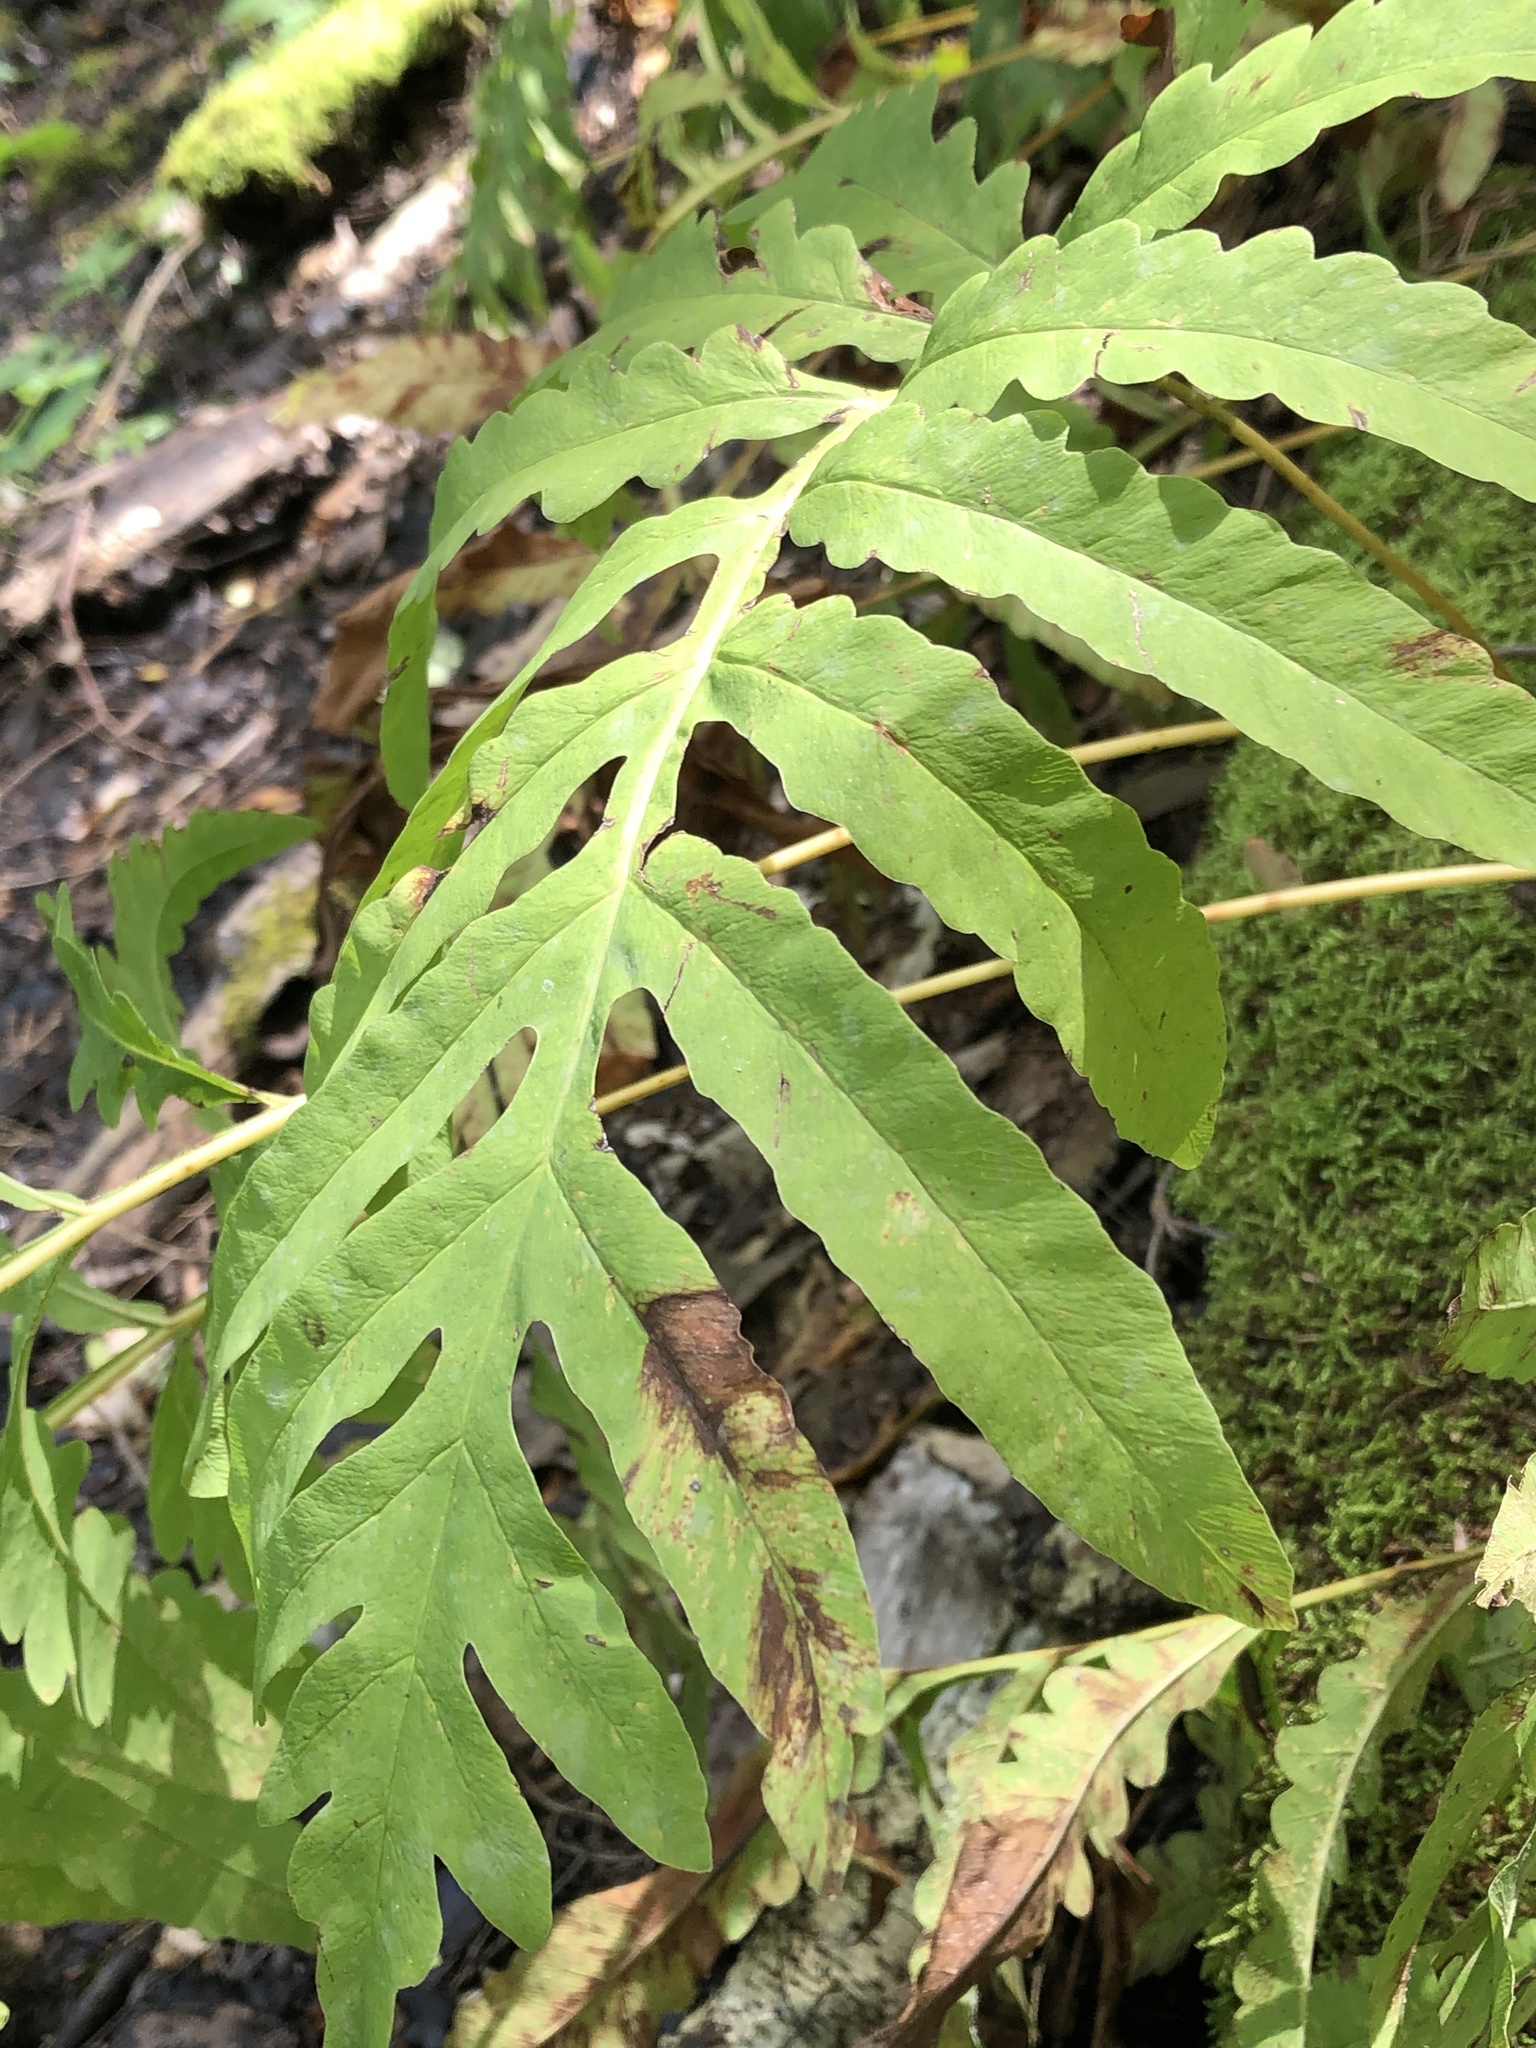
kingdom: Plantae
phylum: Tracheophyta
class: Polypodiopsida
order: Polypodiales
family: Onocleaceae
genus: Onoclea
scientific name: Onoclea sensibilis
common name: Sensitive fern
